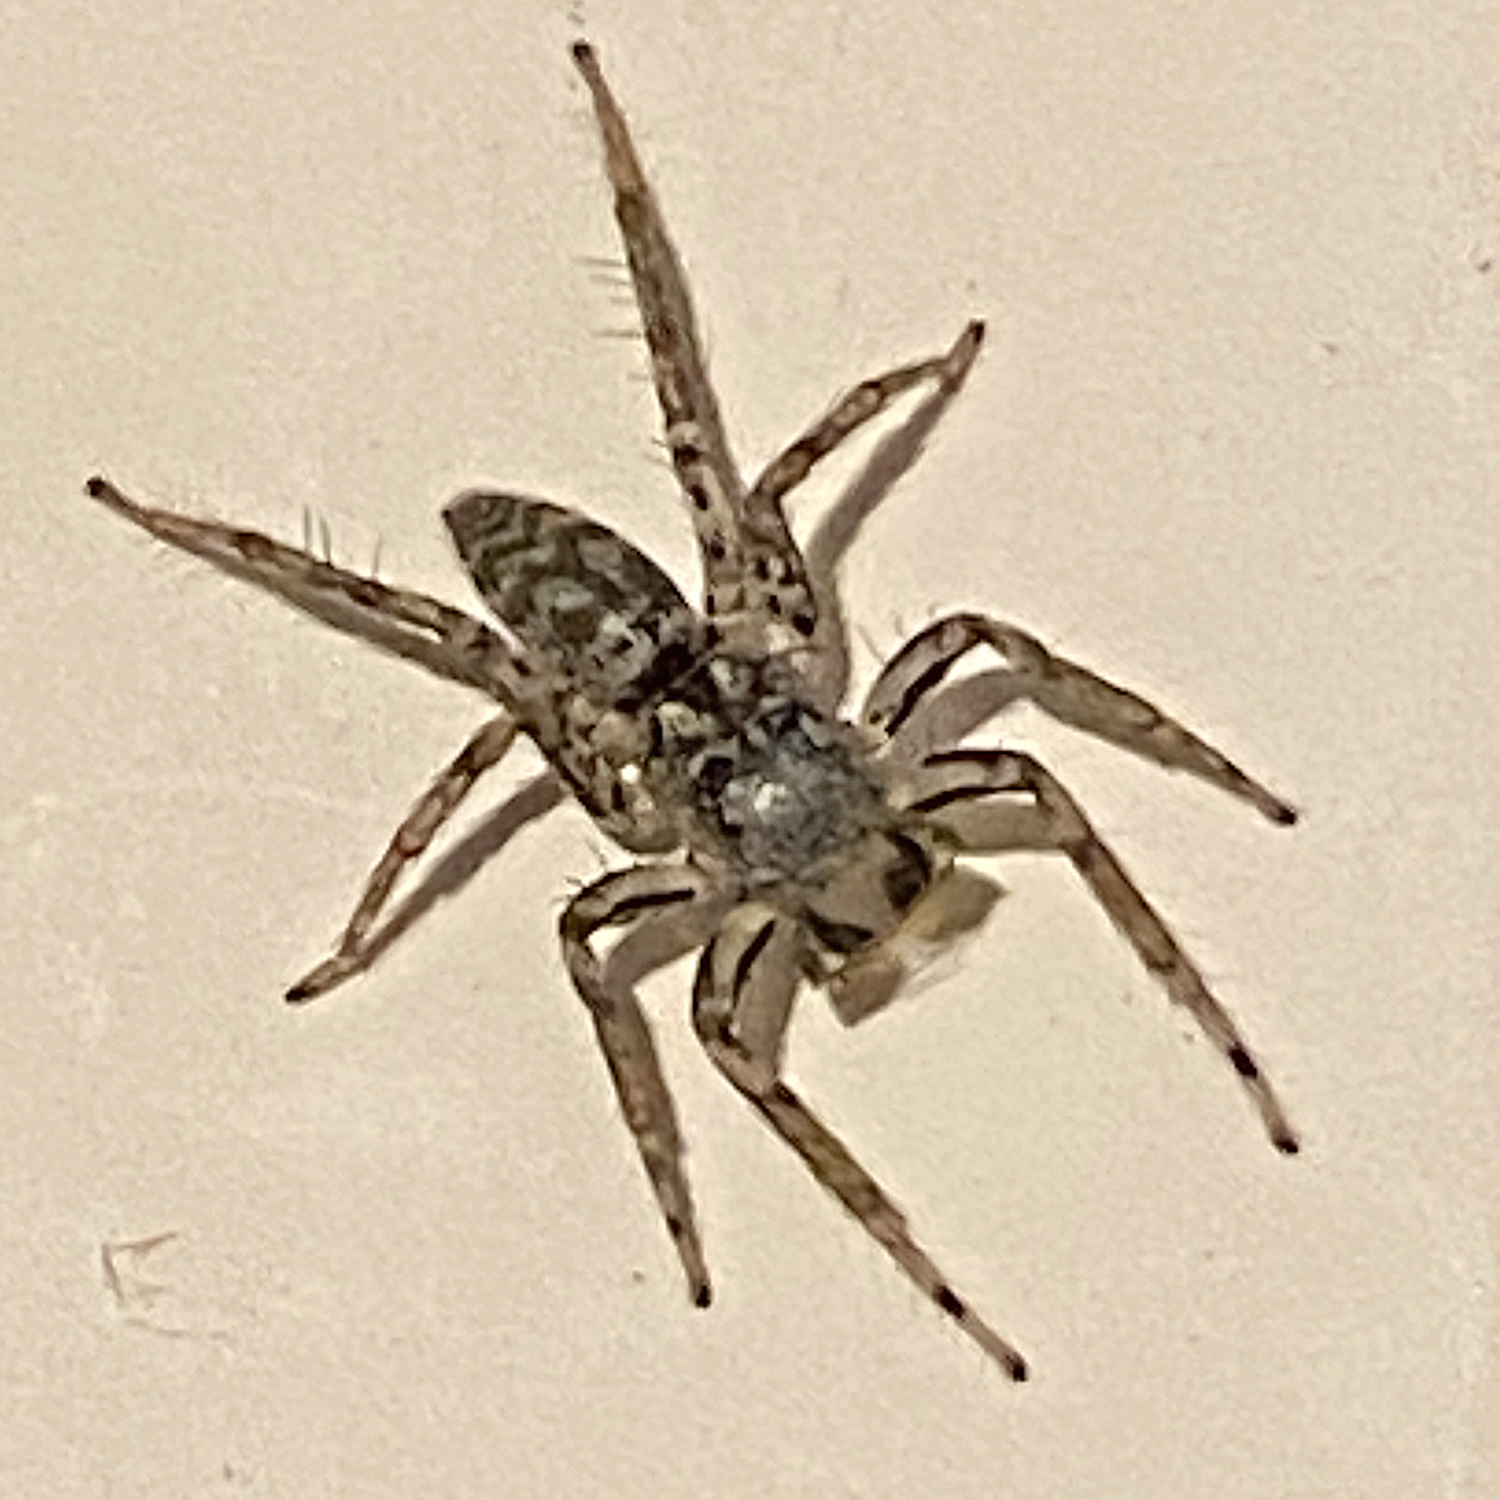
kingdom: Animalia
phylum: Arthropoda
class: Arachnida
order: Araneae
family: Salticidae
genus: Maevia
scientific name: Maevia inclemens
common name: Dimorphic jumper
